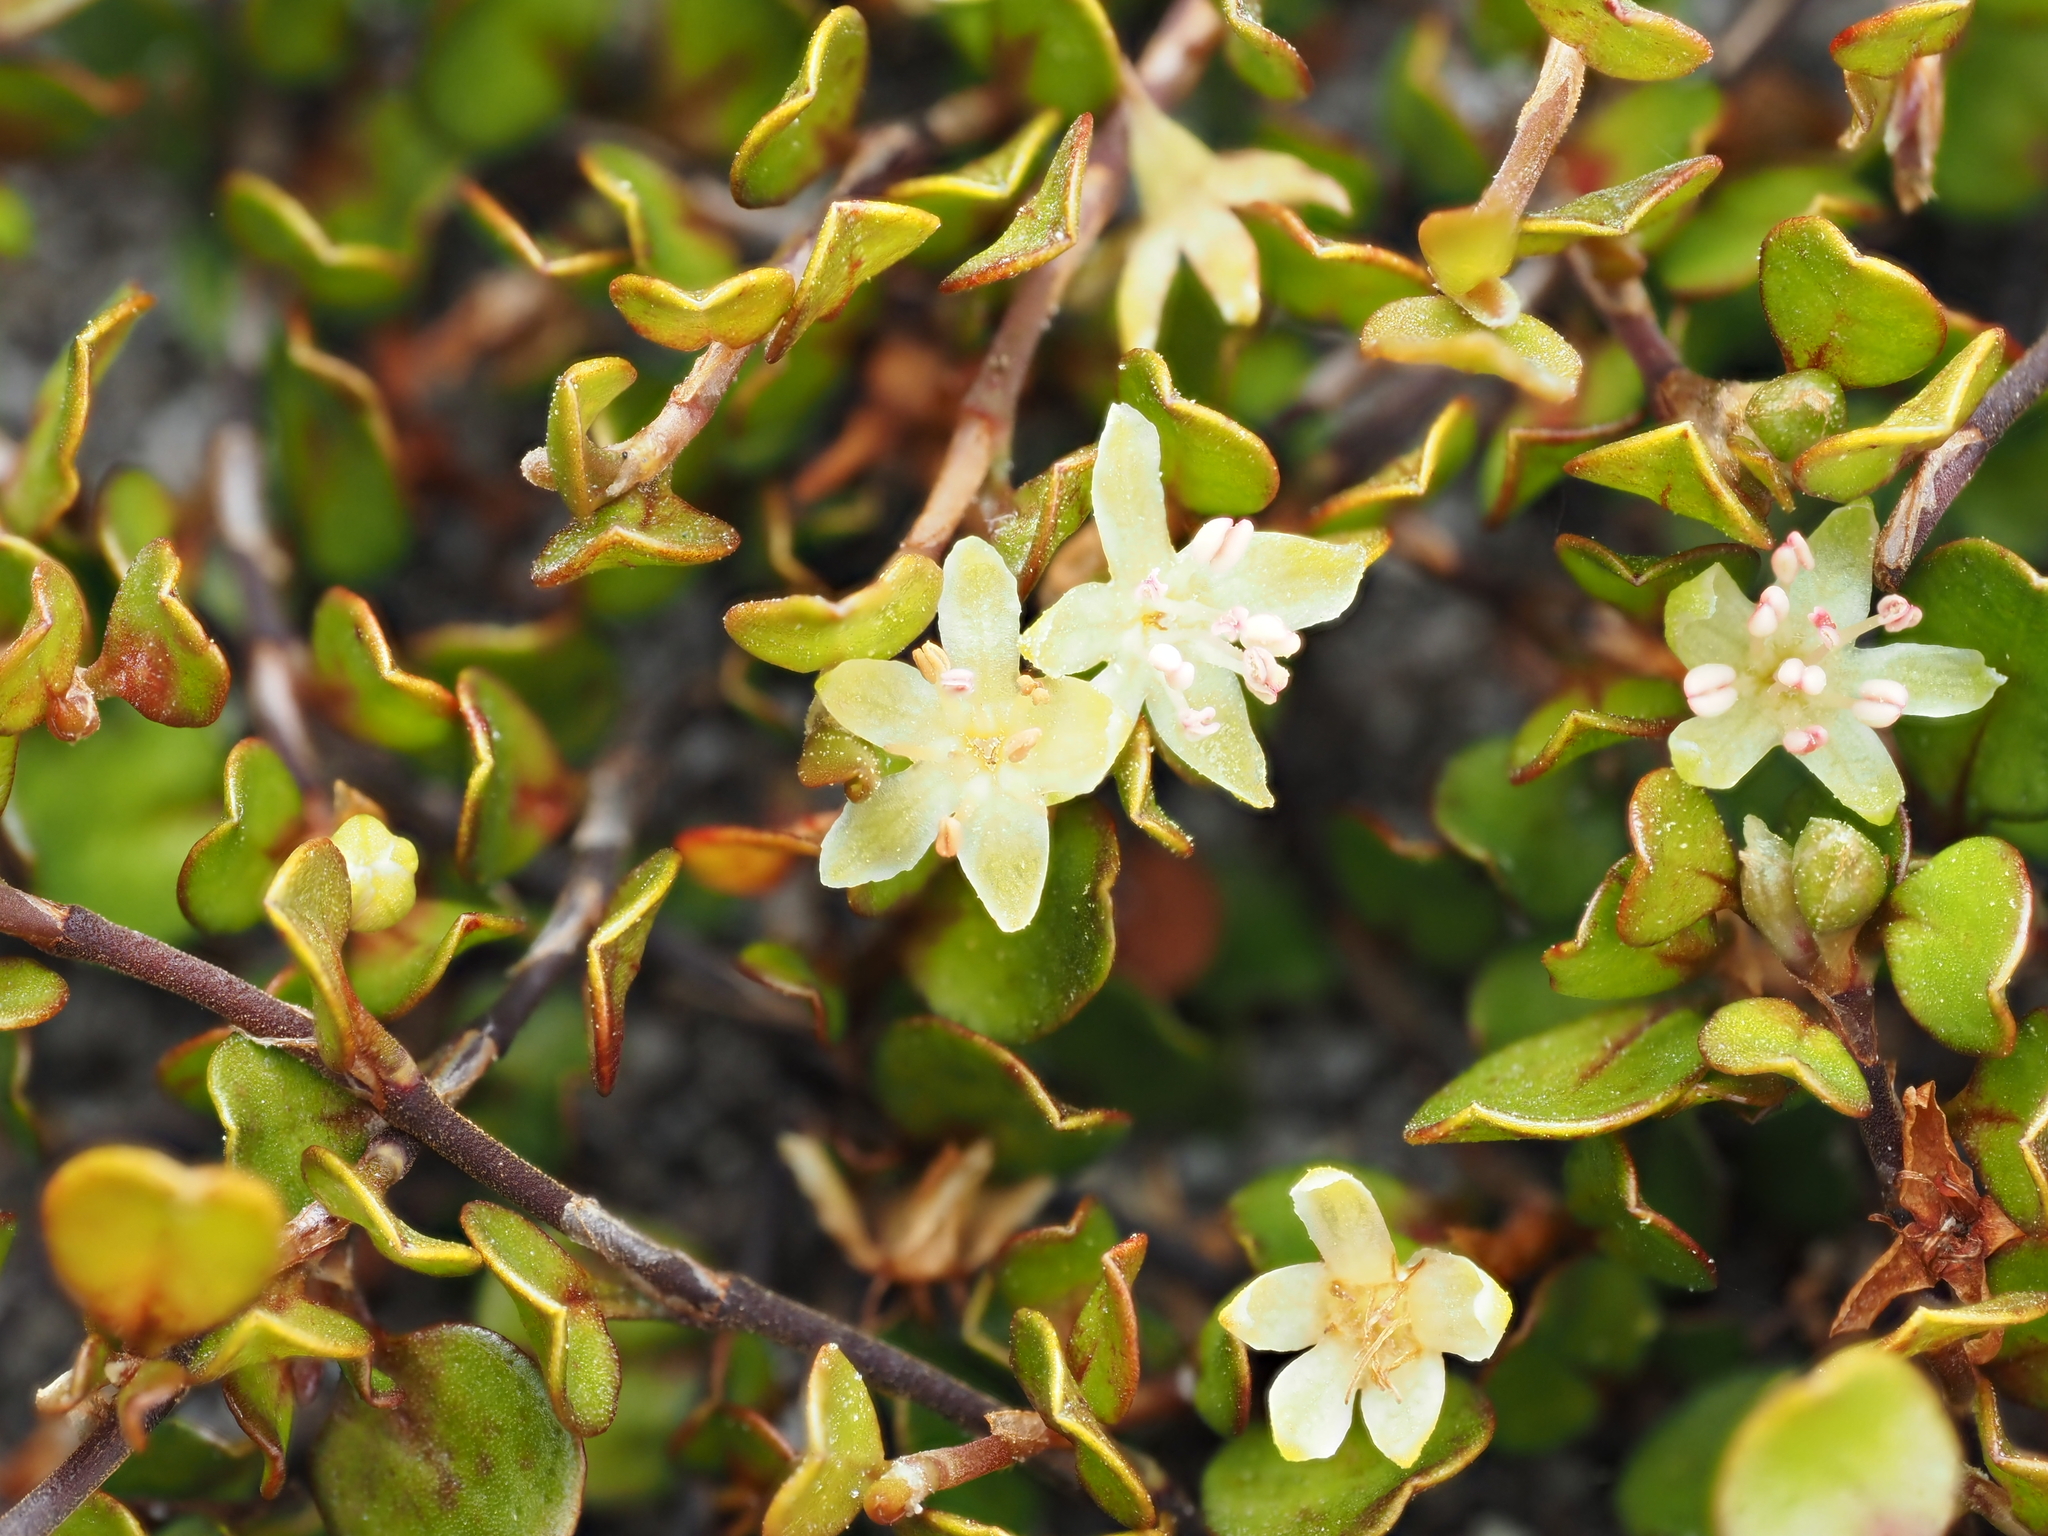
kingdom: Plantae
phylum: Tracheophyta
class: Magnoliopsida
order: Caryophyllales
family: Polygonaceae
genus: Muehlenbeckia
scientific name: Muehlenbeckia axillaris
